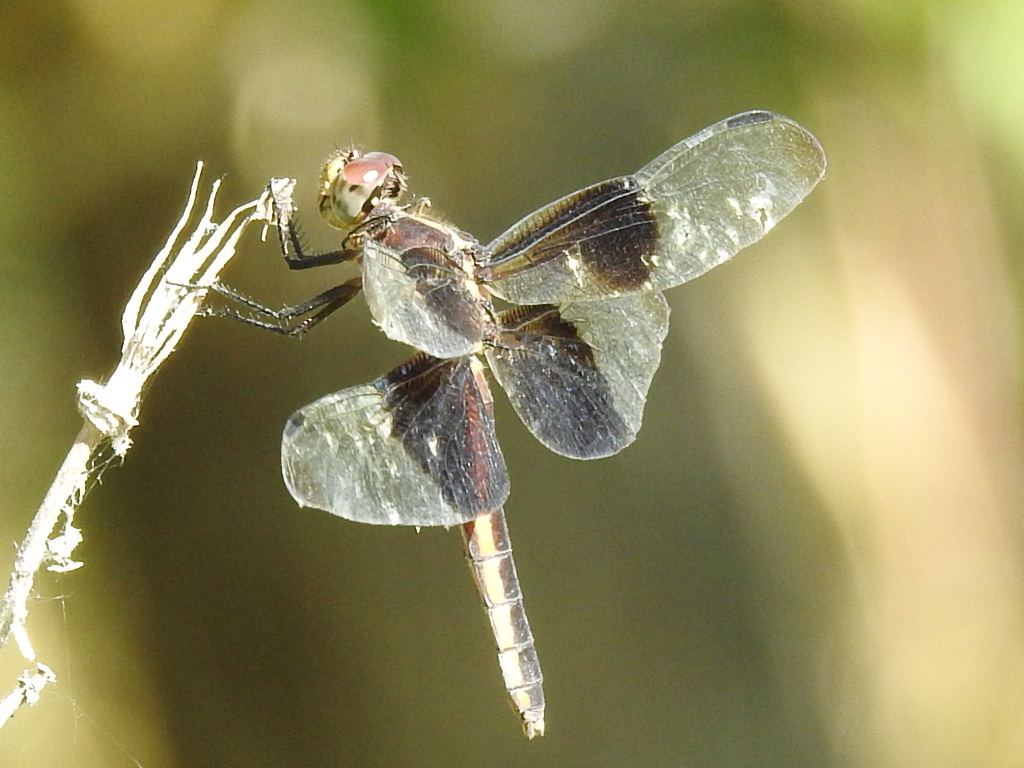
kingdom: Animalia
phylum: Arthropoda
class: Insecta
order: Odonata
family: Libellulidae
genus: Libellula
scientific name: Libellula luctuosa
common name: Widow skimmer
